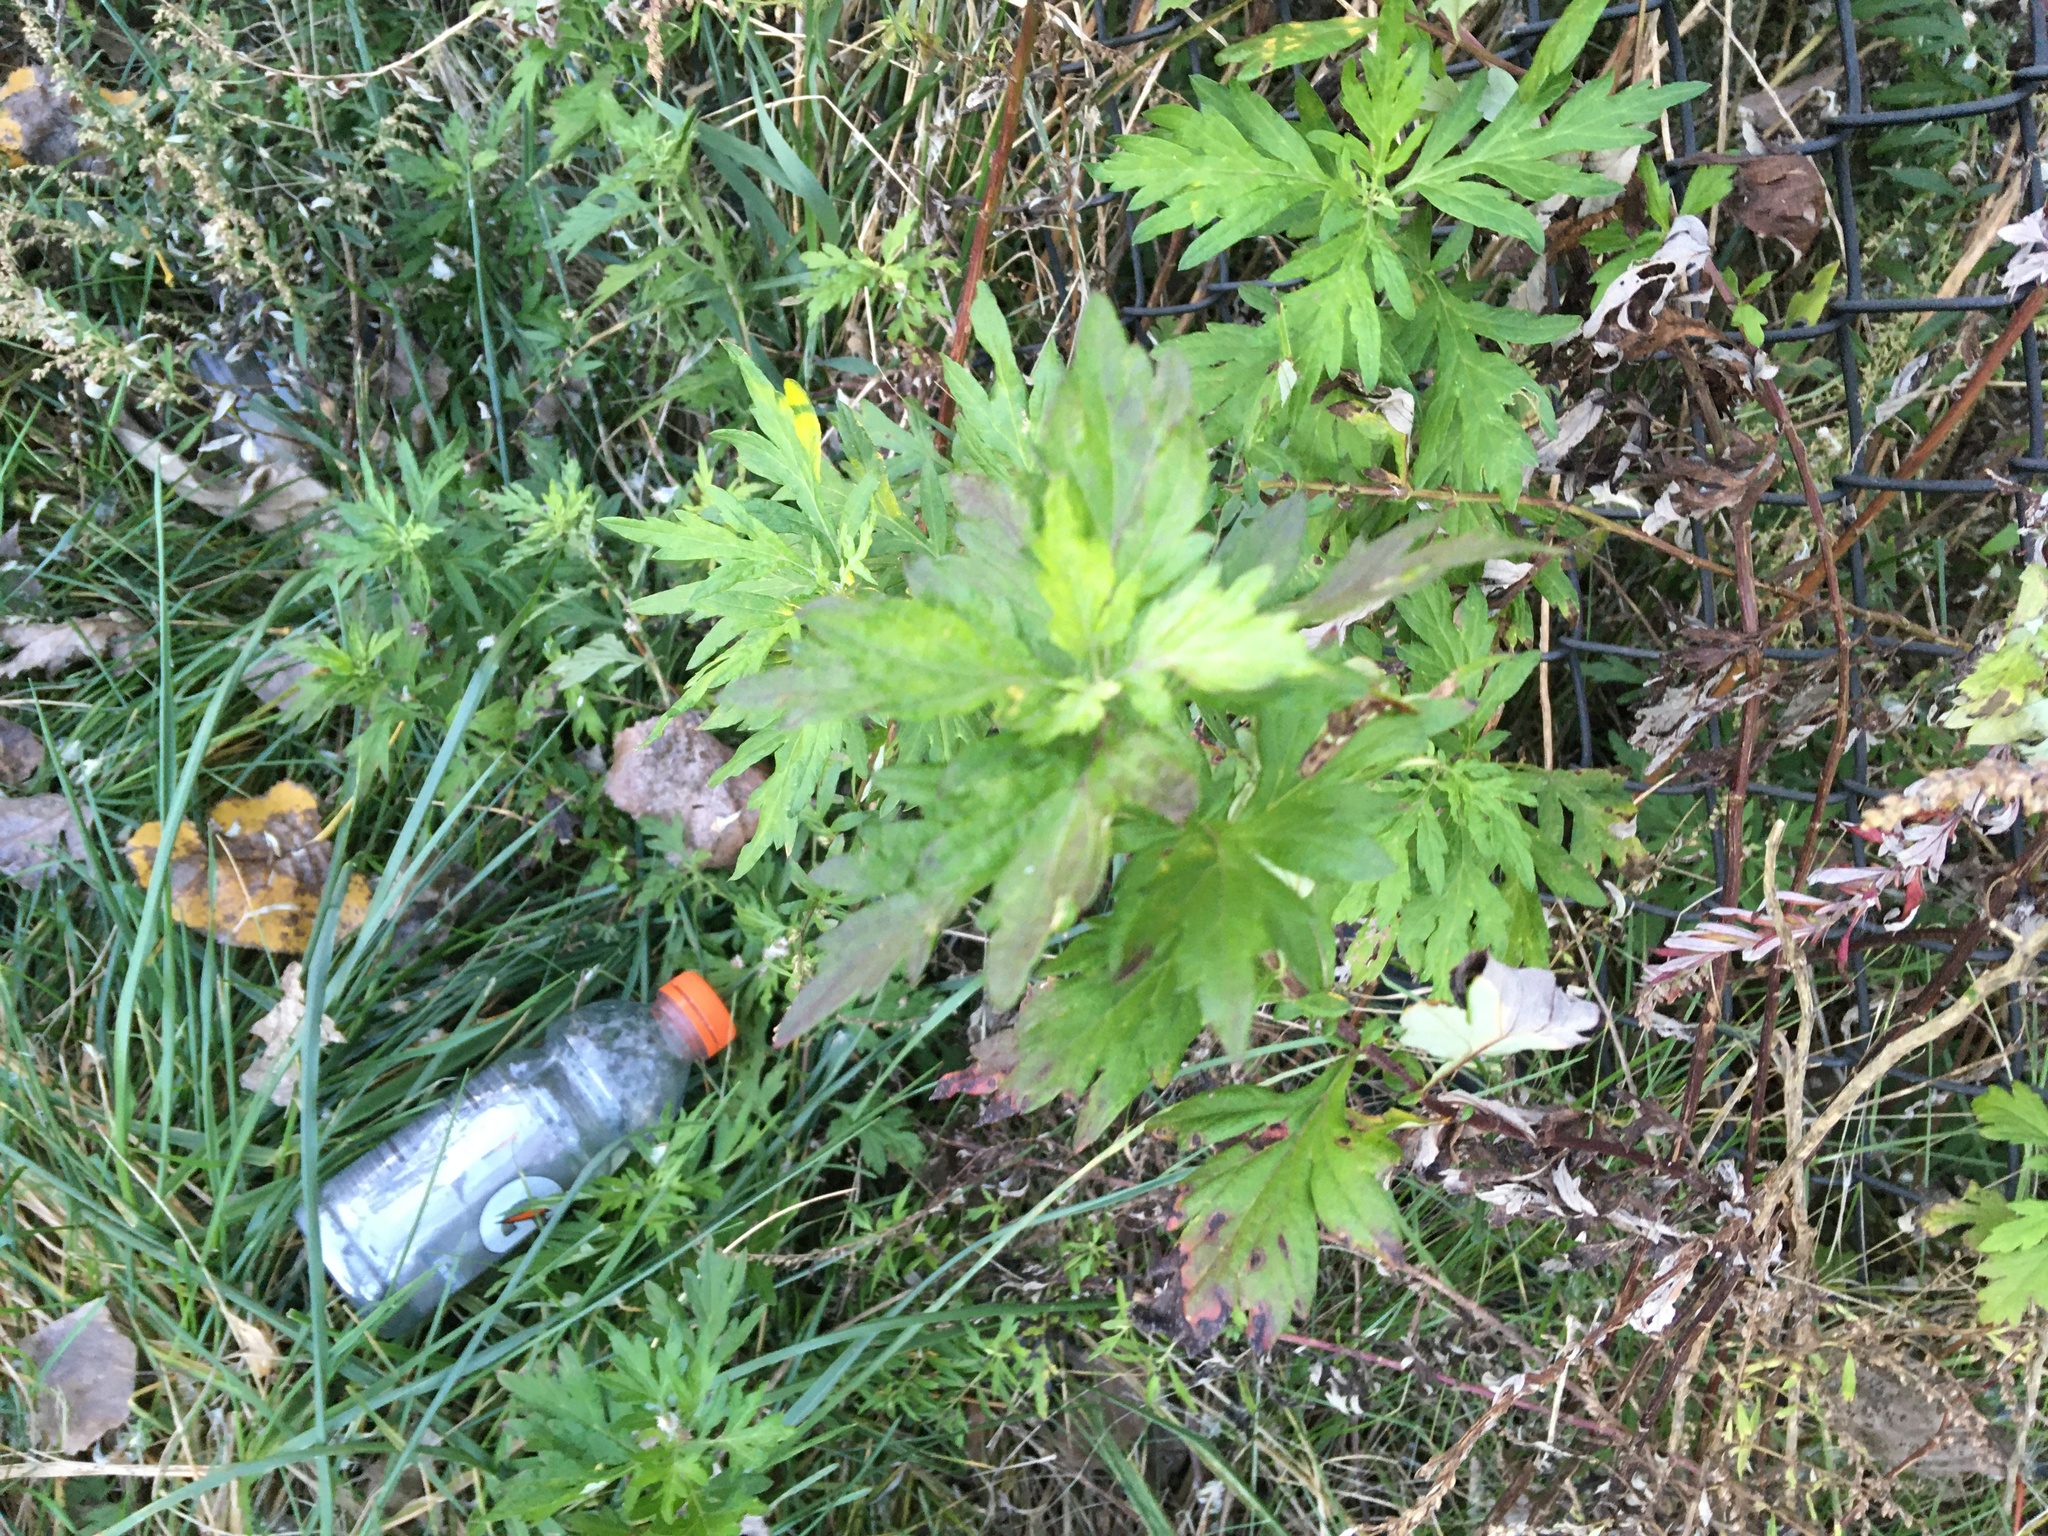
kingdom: Plantae
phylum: Tracheophyta
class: Magnoliopsida
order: Asterales
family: Asteraceae
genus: Artemisia
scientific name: Artemisia vulgaris
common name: Mugwort
